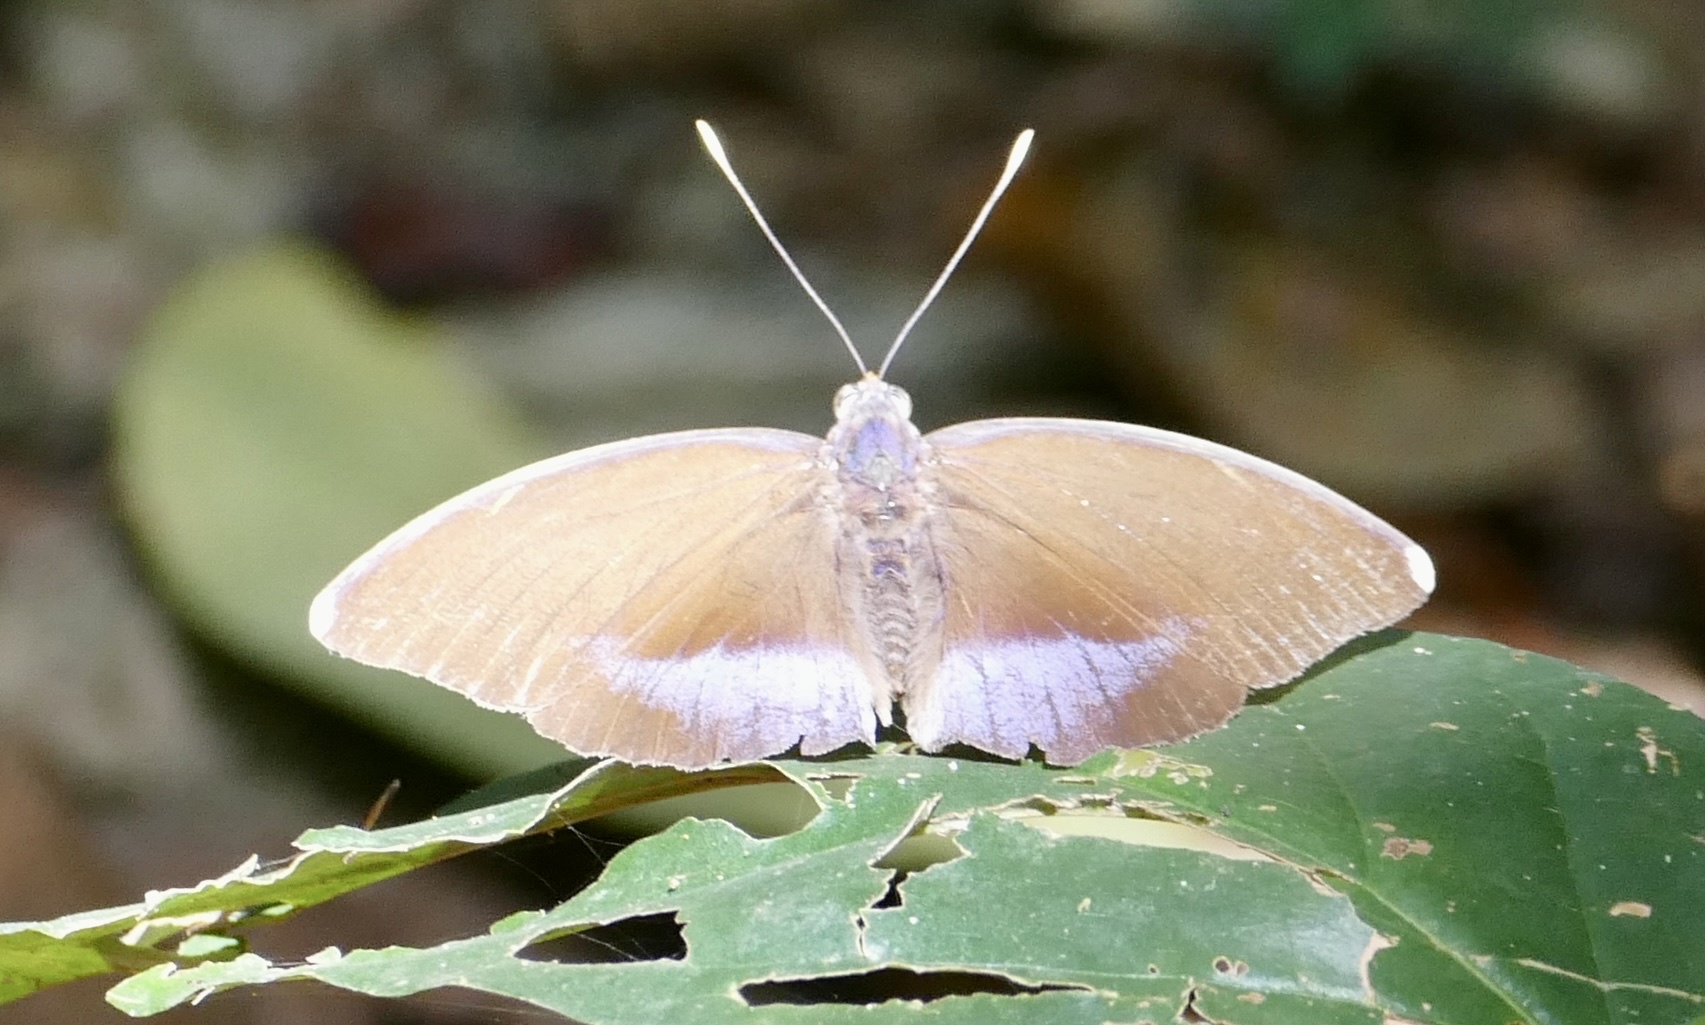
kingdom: Animalia
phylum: Arthropoda
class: Insecta
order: Lepidoptera
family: Nymphalidae
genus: Euphaedra
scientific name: Euphaedra harpalyce
